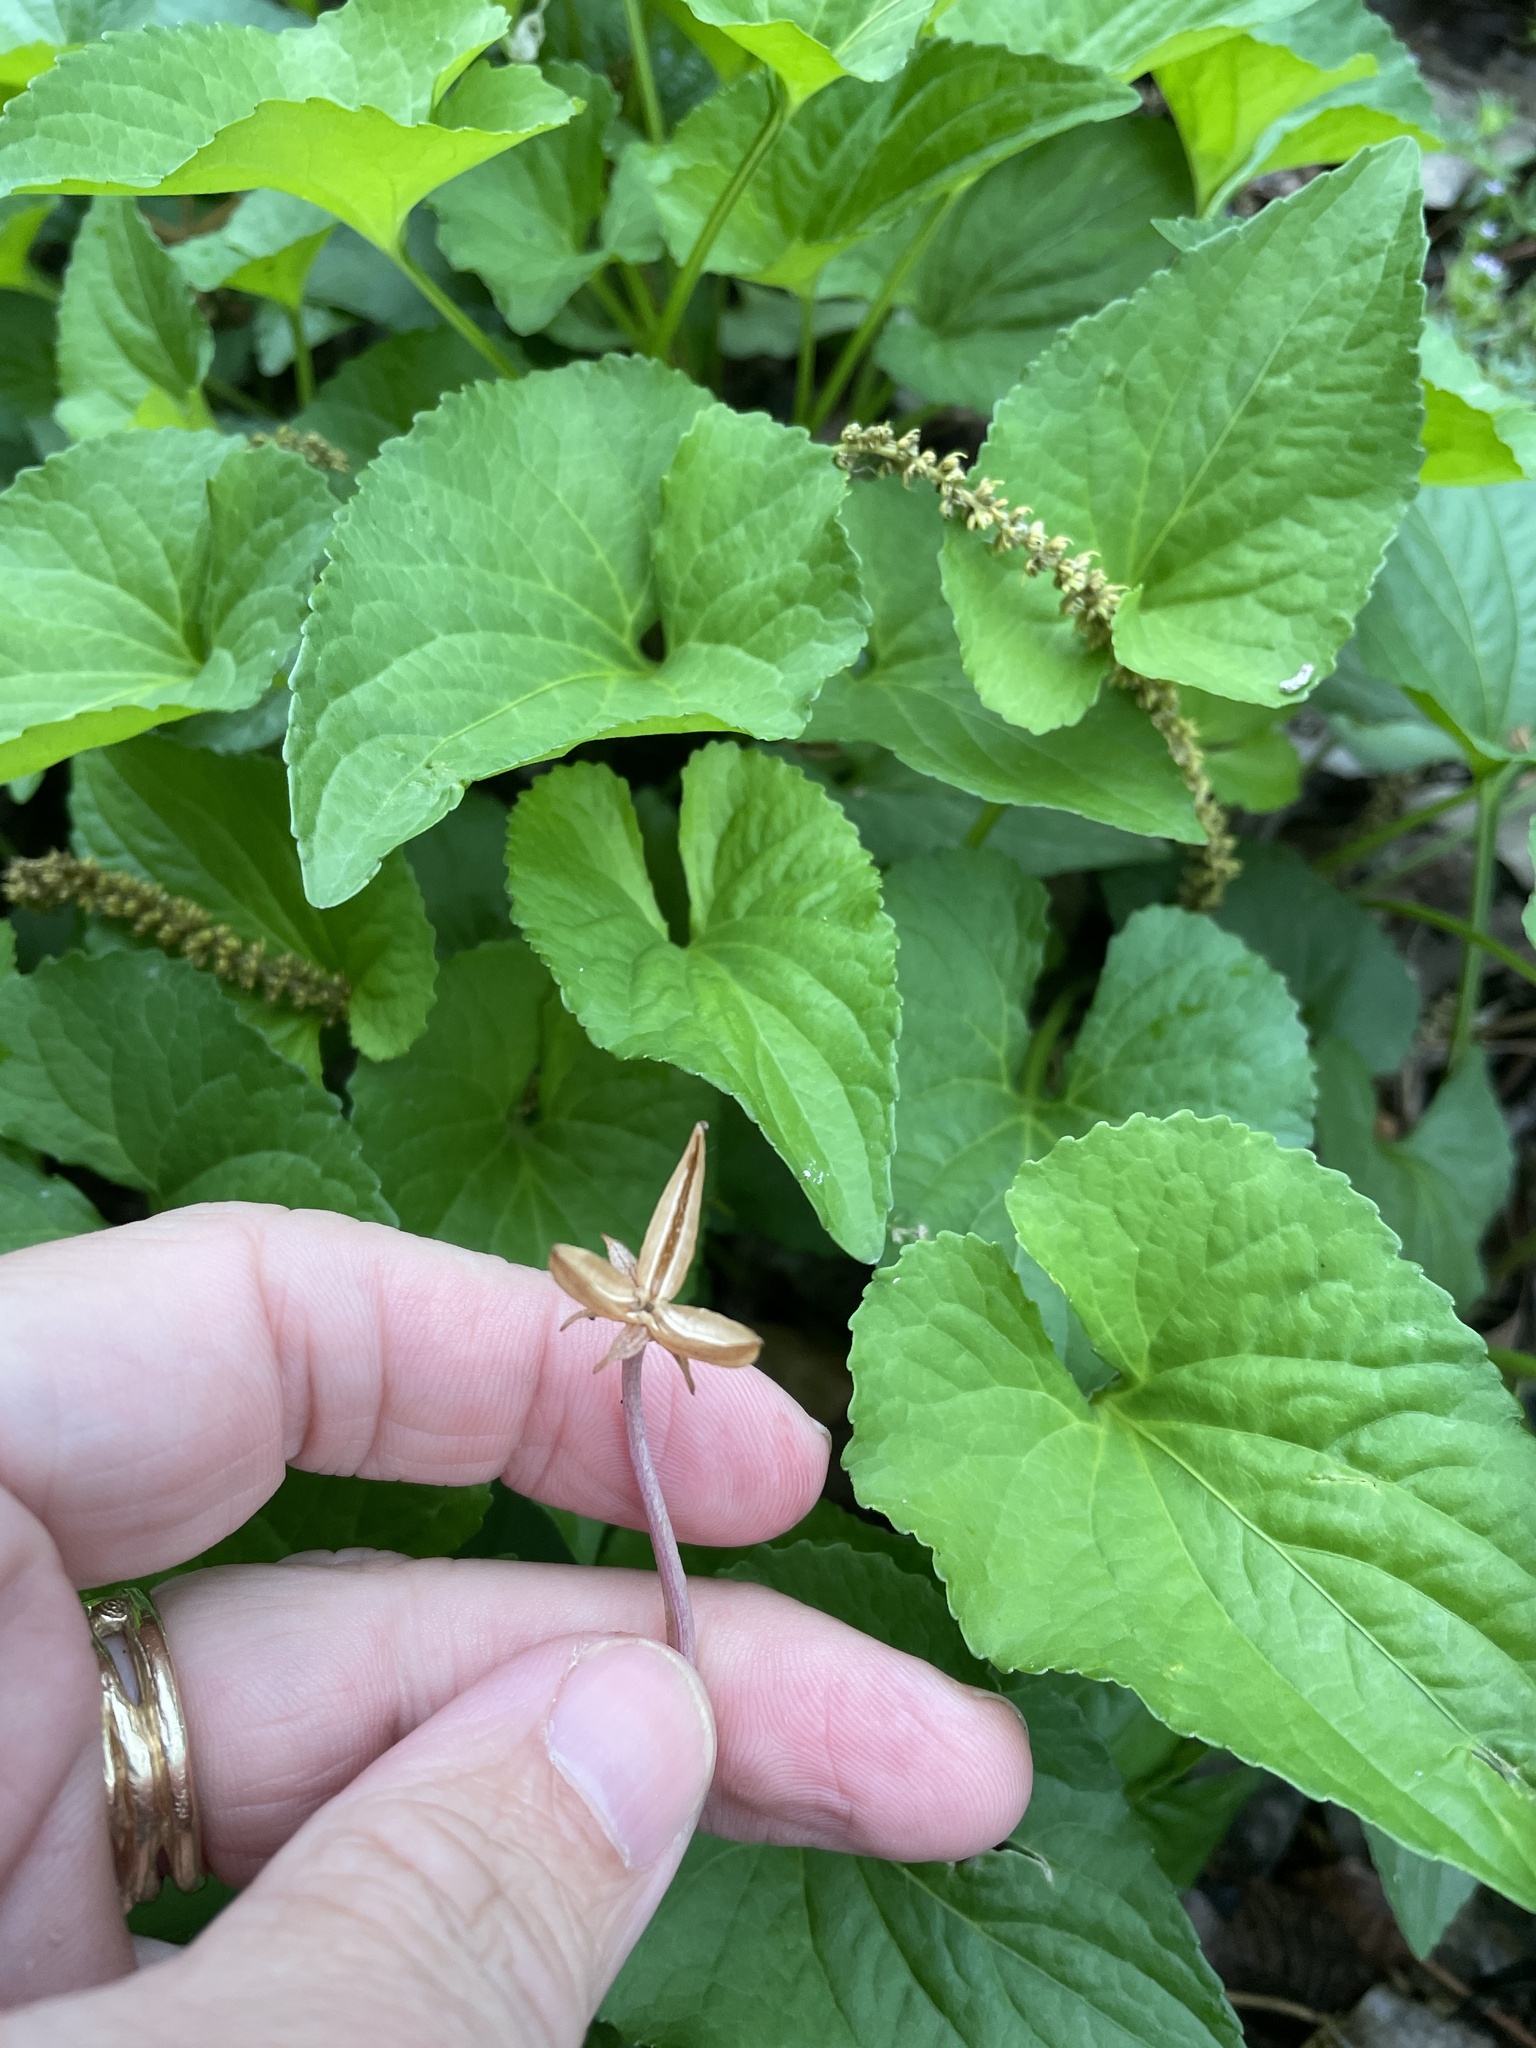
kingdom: Plantae
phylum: Tracheophyta
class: Magnoliopsida
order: Malpighiales
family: Violaceae
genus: Viola
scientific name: Viola missouriensis
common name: Missouri violet
